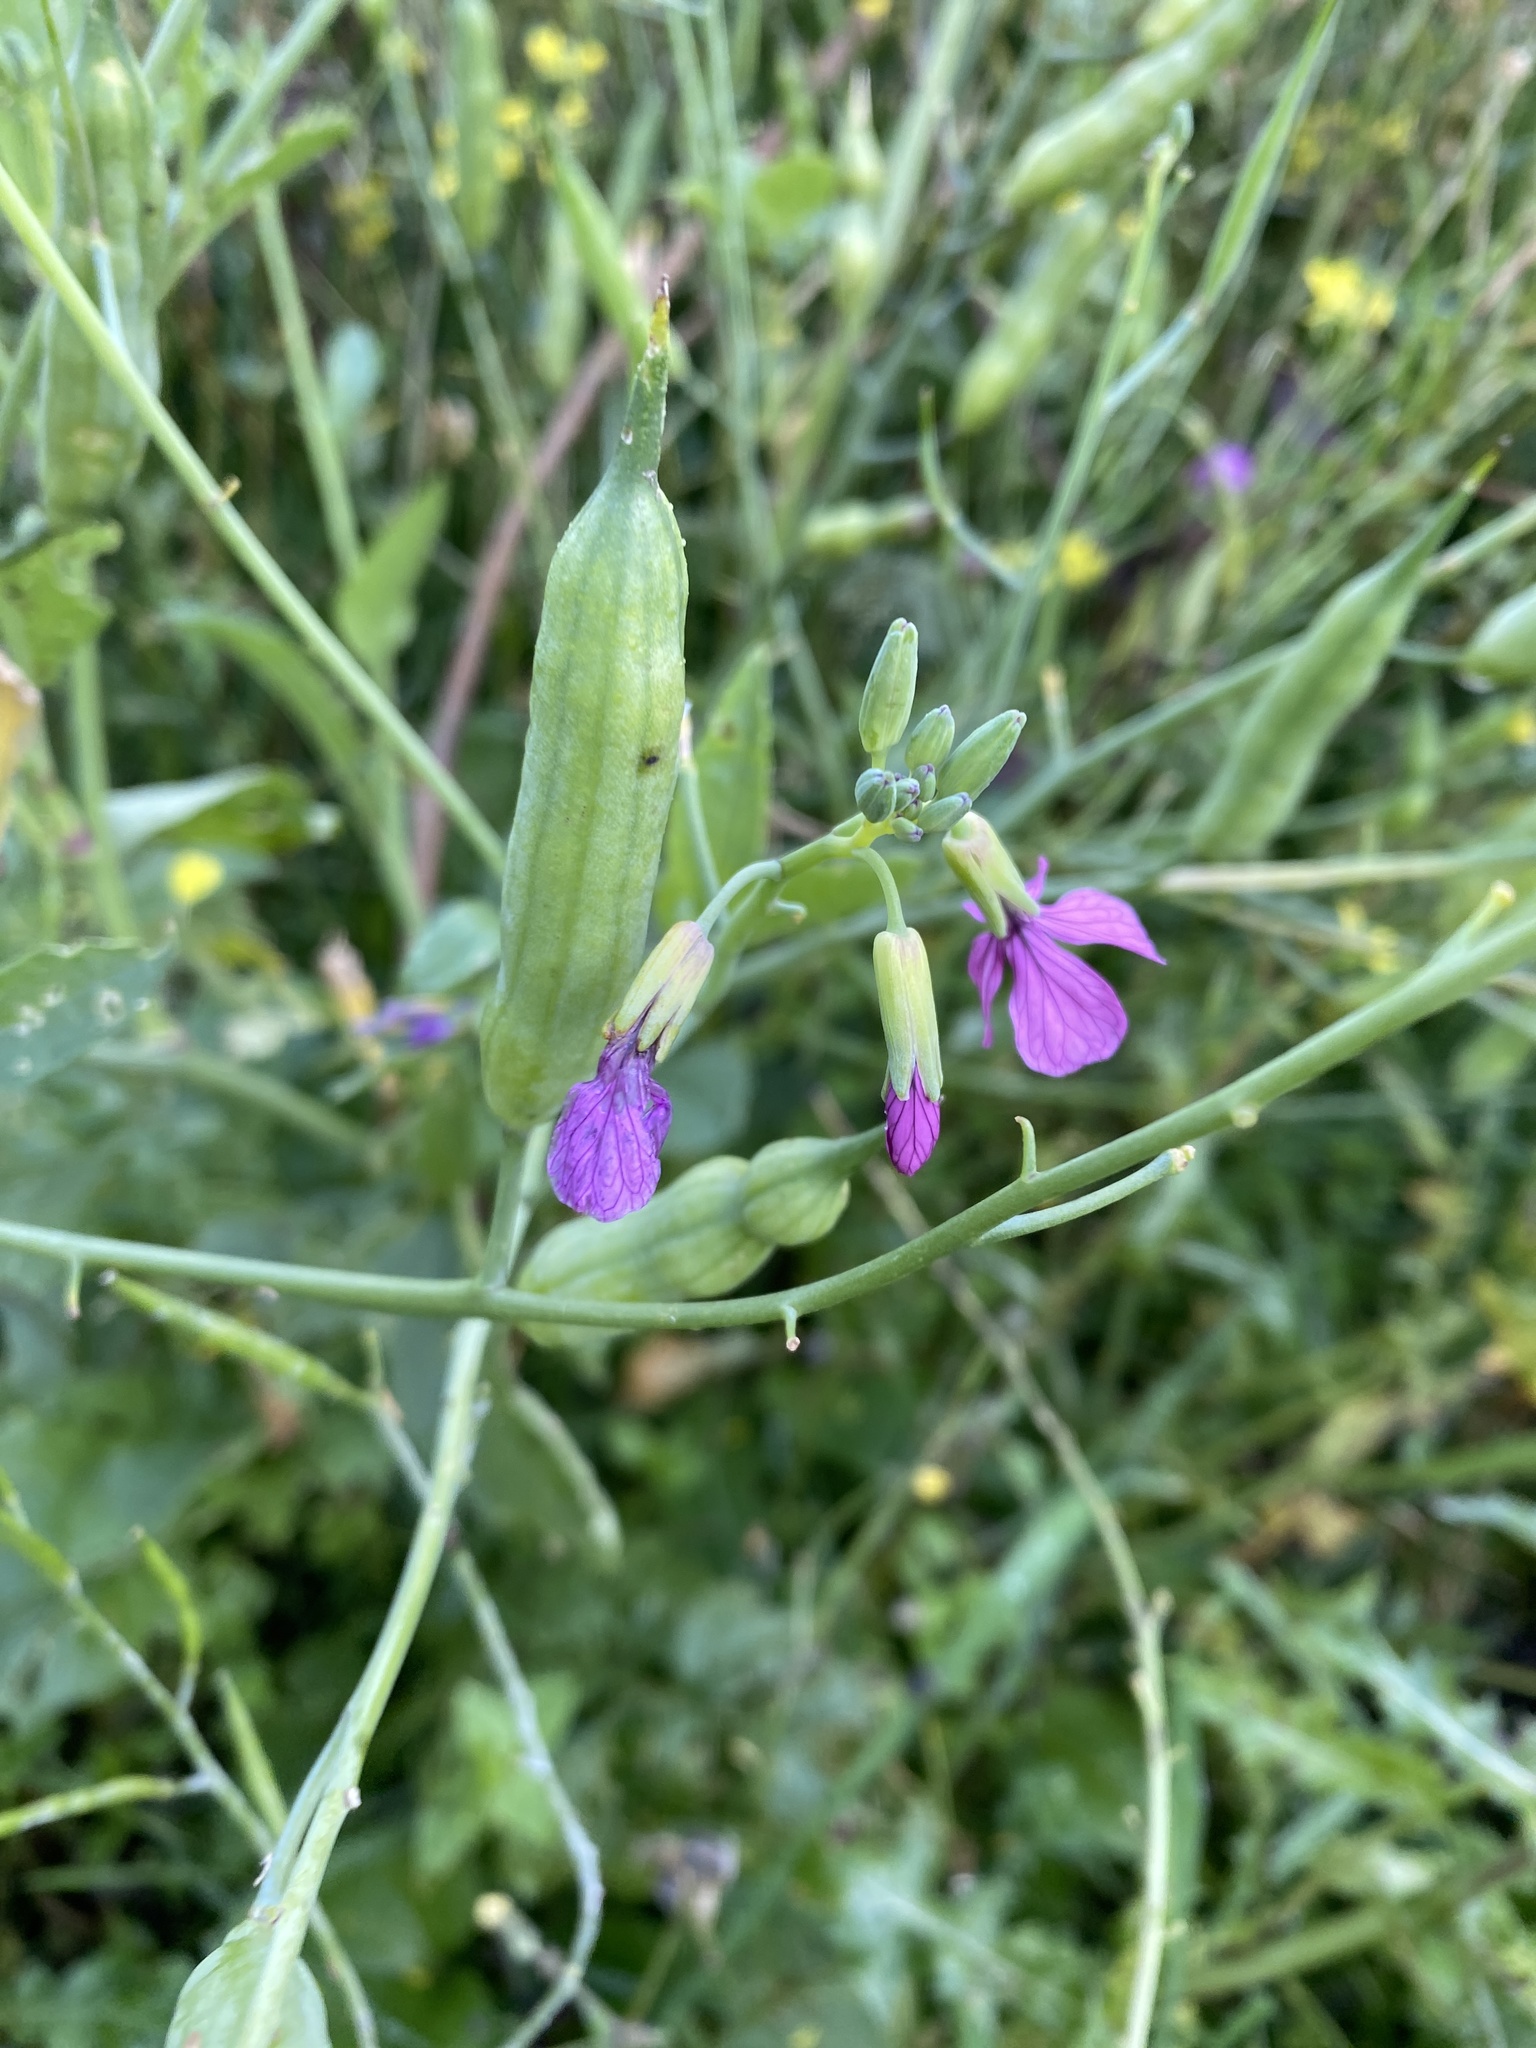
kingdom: Plantae
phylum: Tracheophyta
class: Magnoliopsida
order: Brassicales
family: Brassicaceae
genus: Raphanus
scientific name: Raphanus sativus
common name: Cultivated radish
